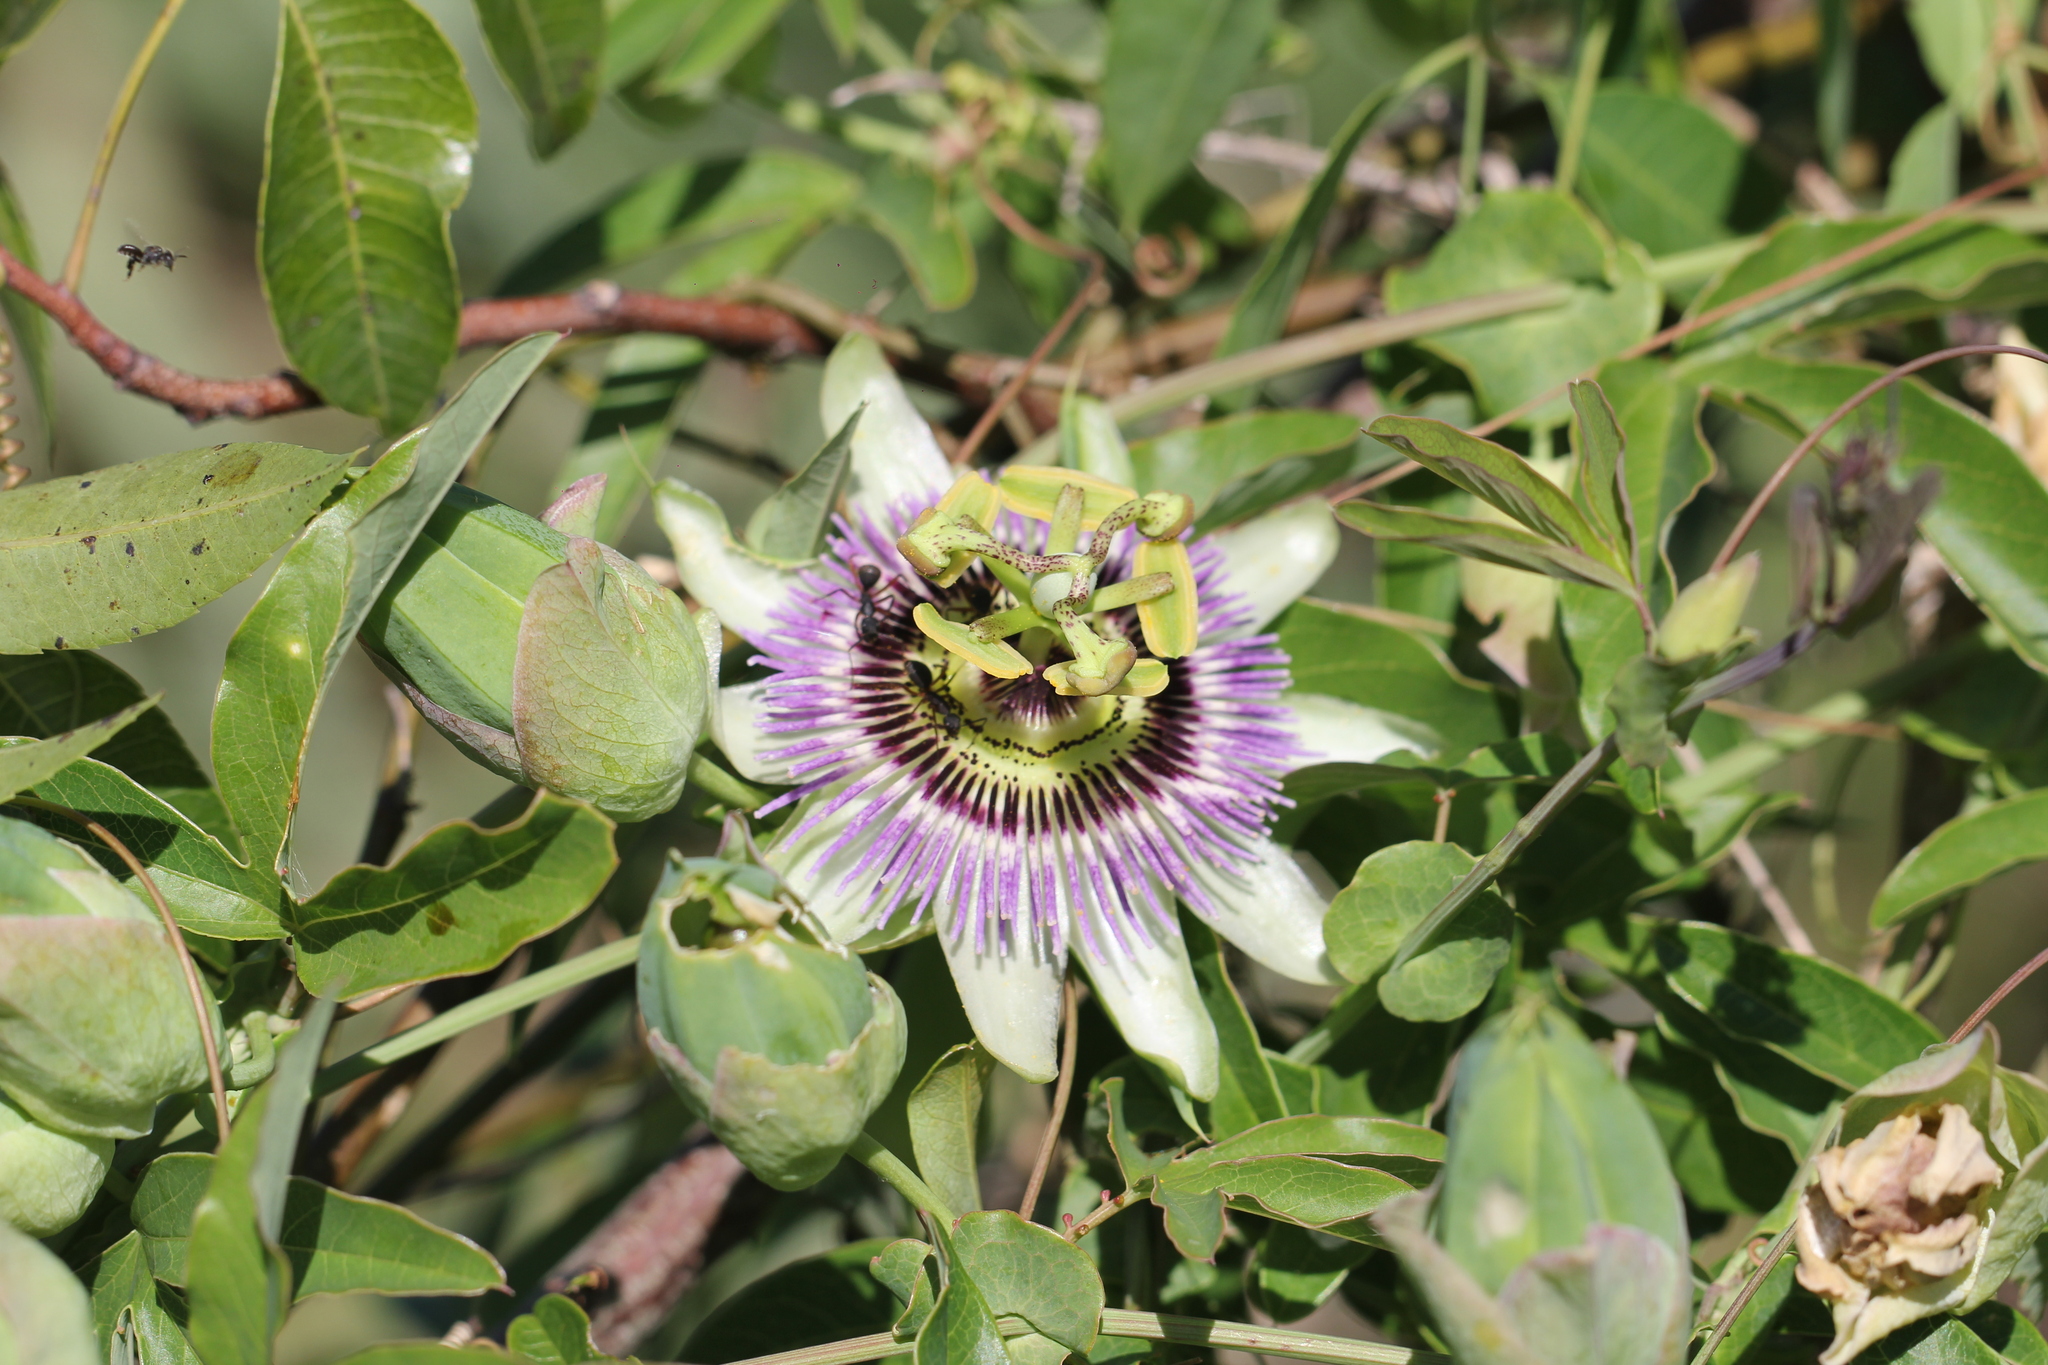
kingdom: Plantae
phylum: Tracheophyta
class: Magnoliopsida
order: Malpighiales
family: Passifloraceae
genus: Passiflora
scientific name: Passiflora caerulea
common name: Blue passionflower
